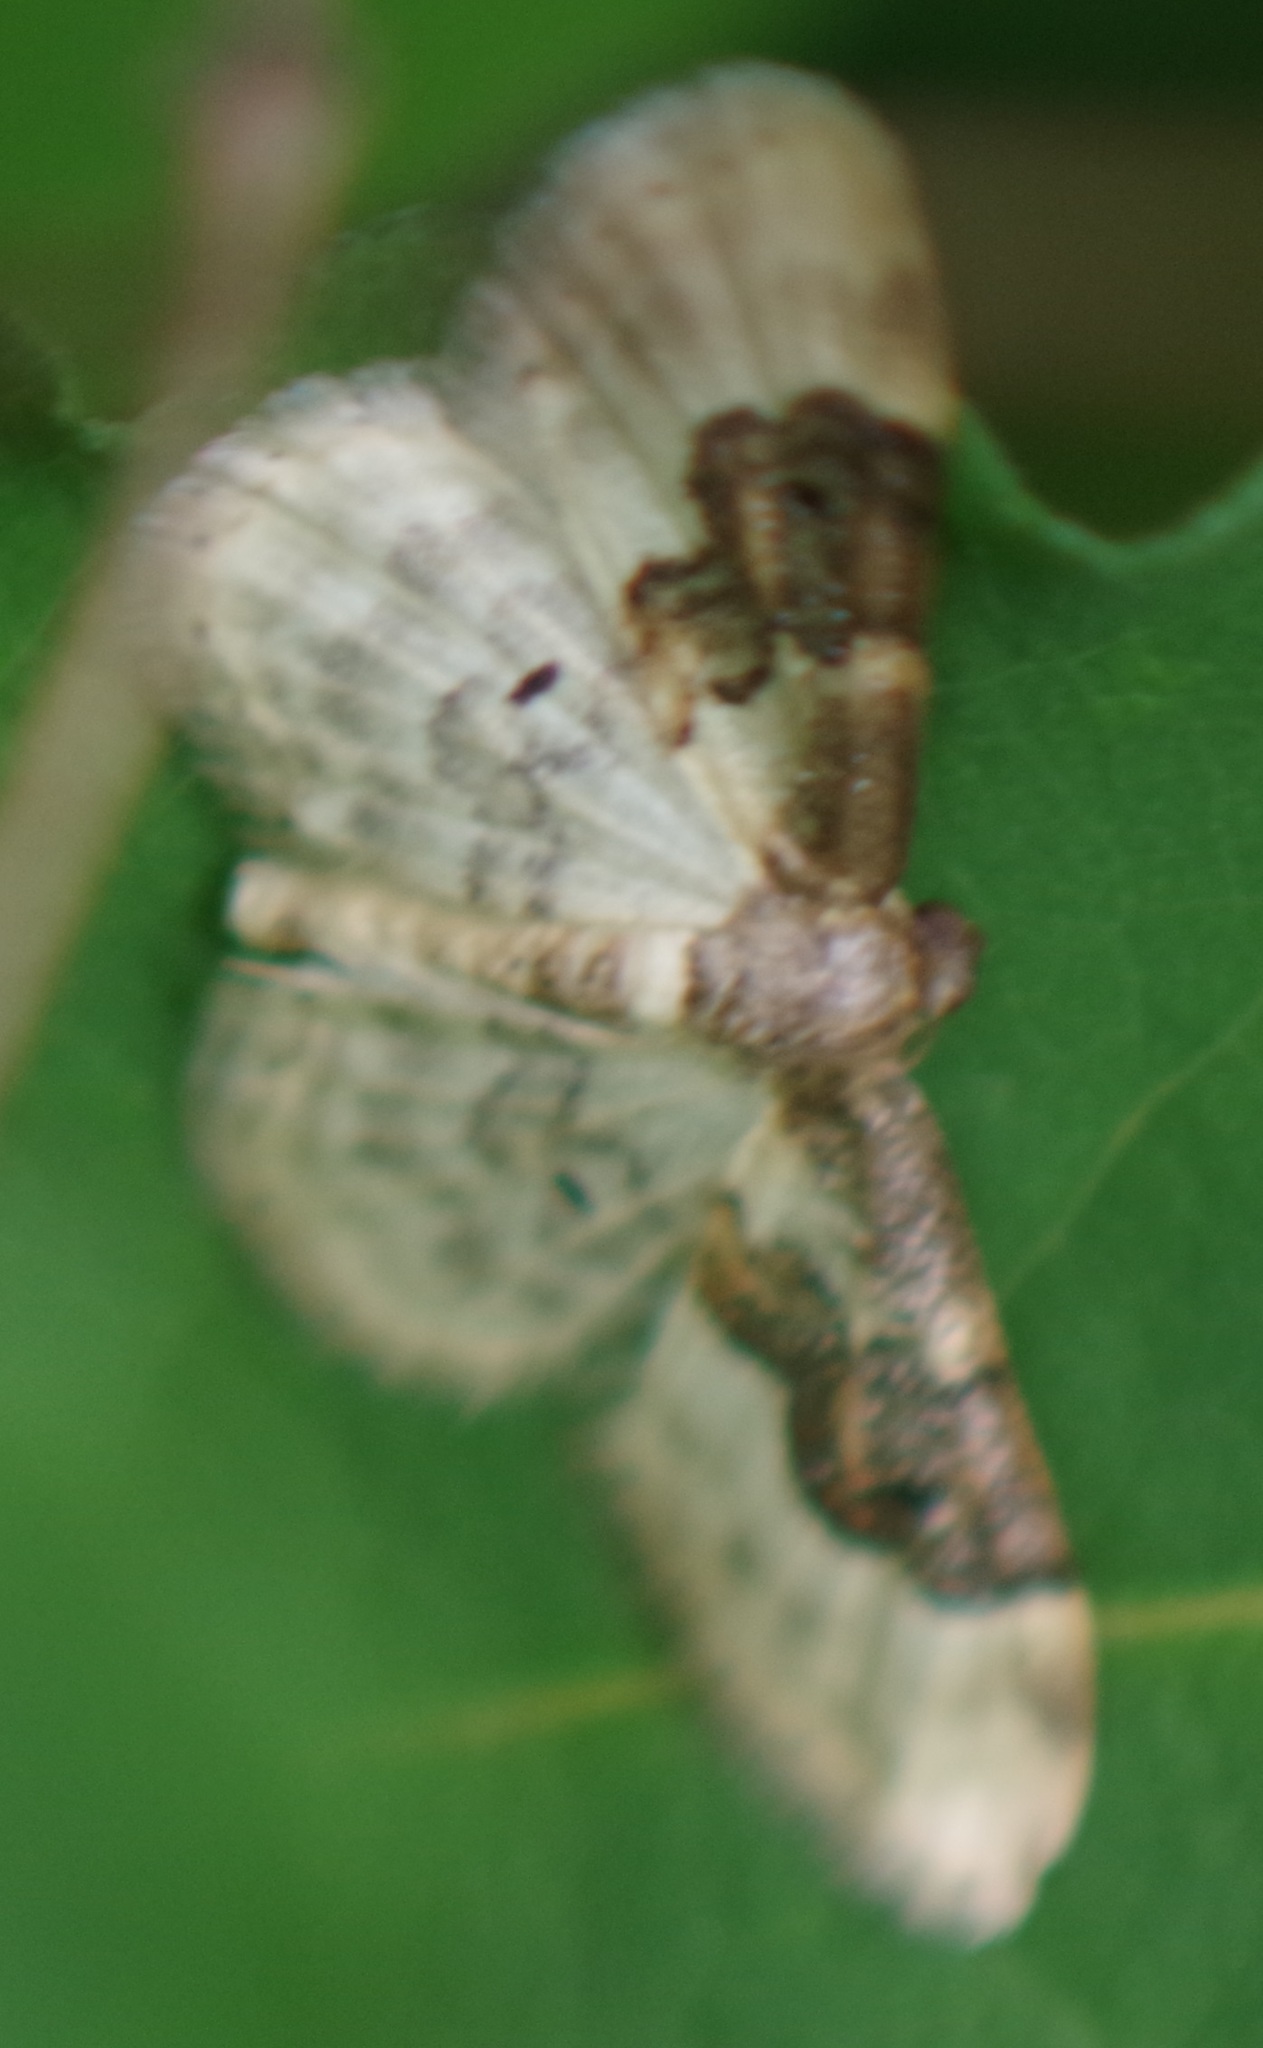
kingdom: Animalia
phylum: Arthropoda
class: Insecta
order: Lepidoptera
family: Geometridae
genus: Idaea
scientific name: Idaea rusticata
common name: Least carpet
